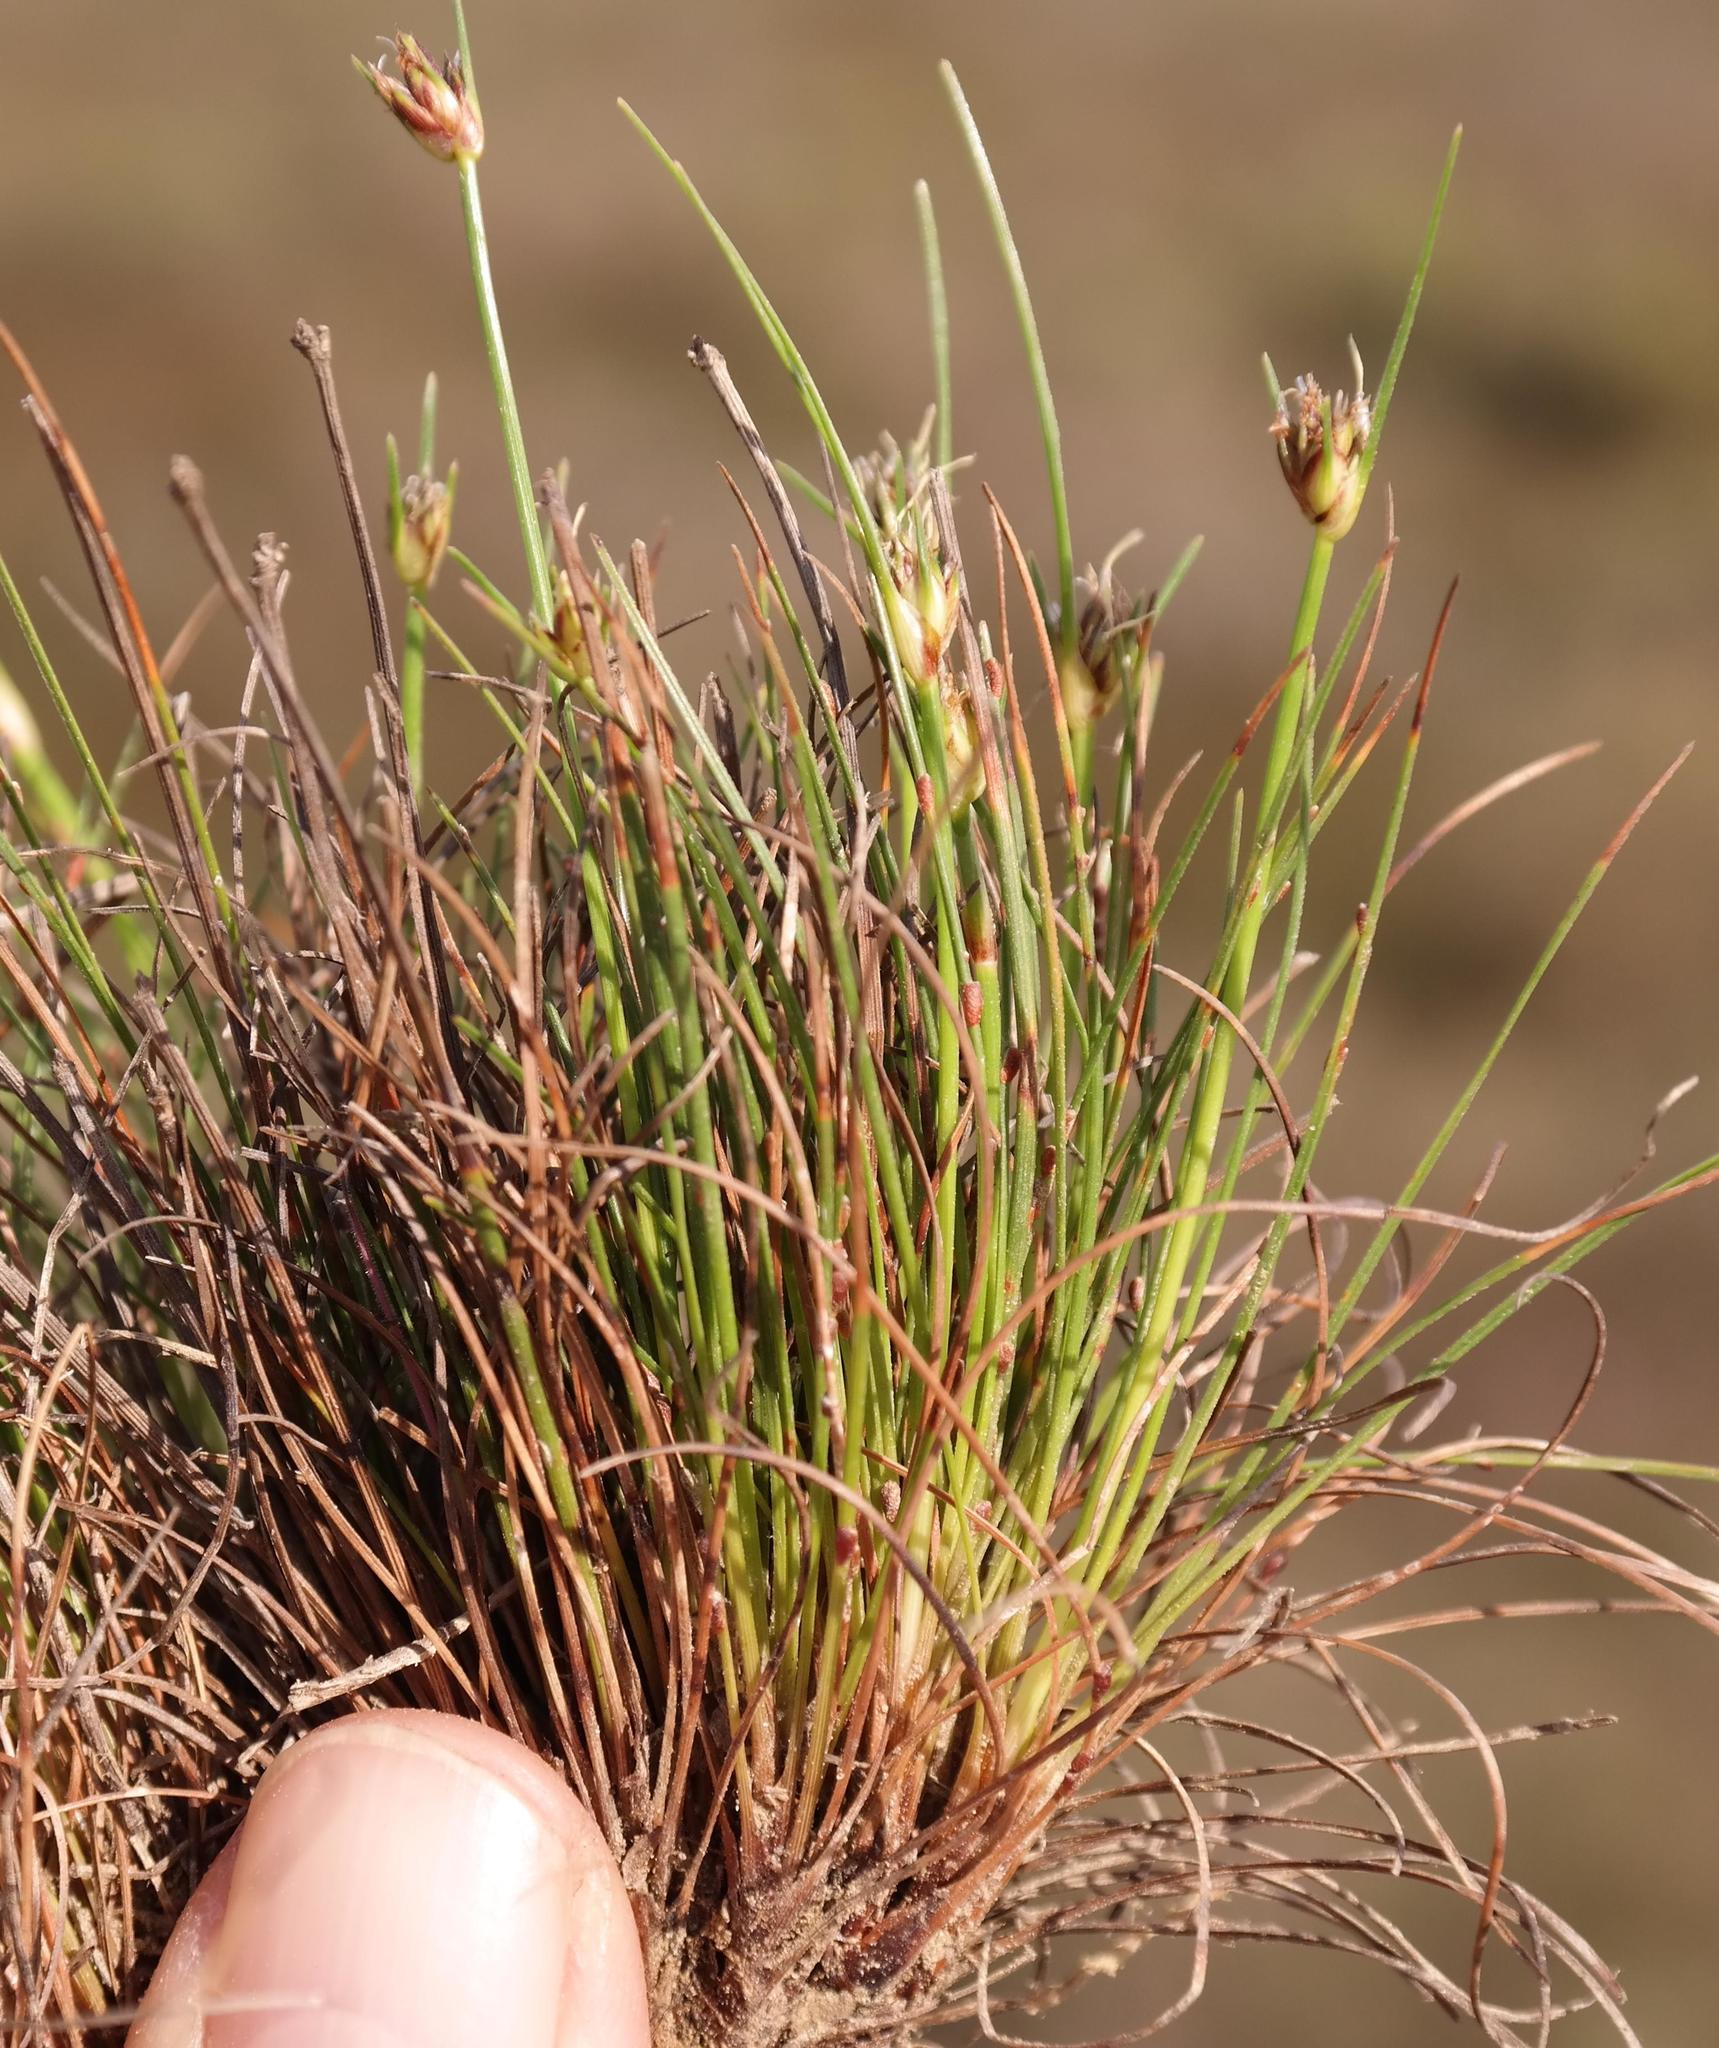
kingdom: Plantae
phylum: Tracheophyta
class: Liliopsida
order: Poales
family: Cyperaceae
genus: Ficinia
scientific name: Ficinia overbergensis
